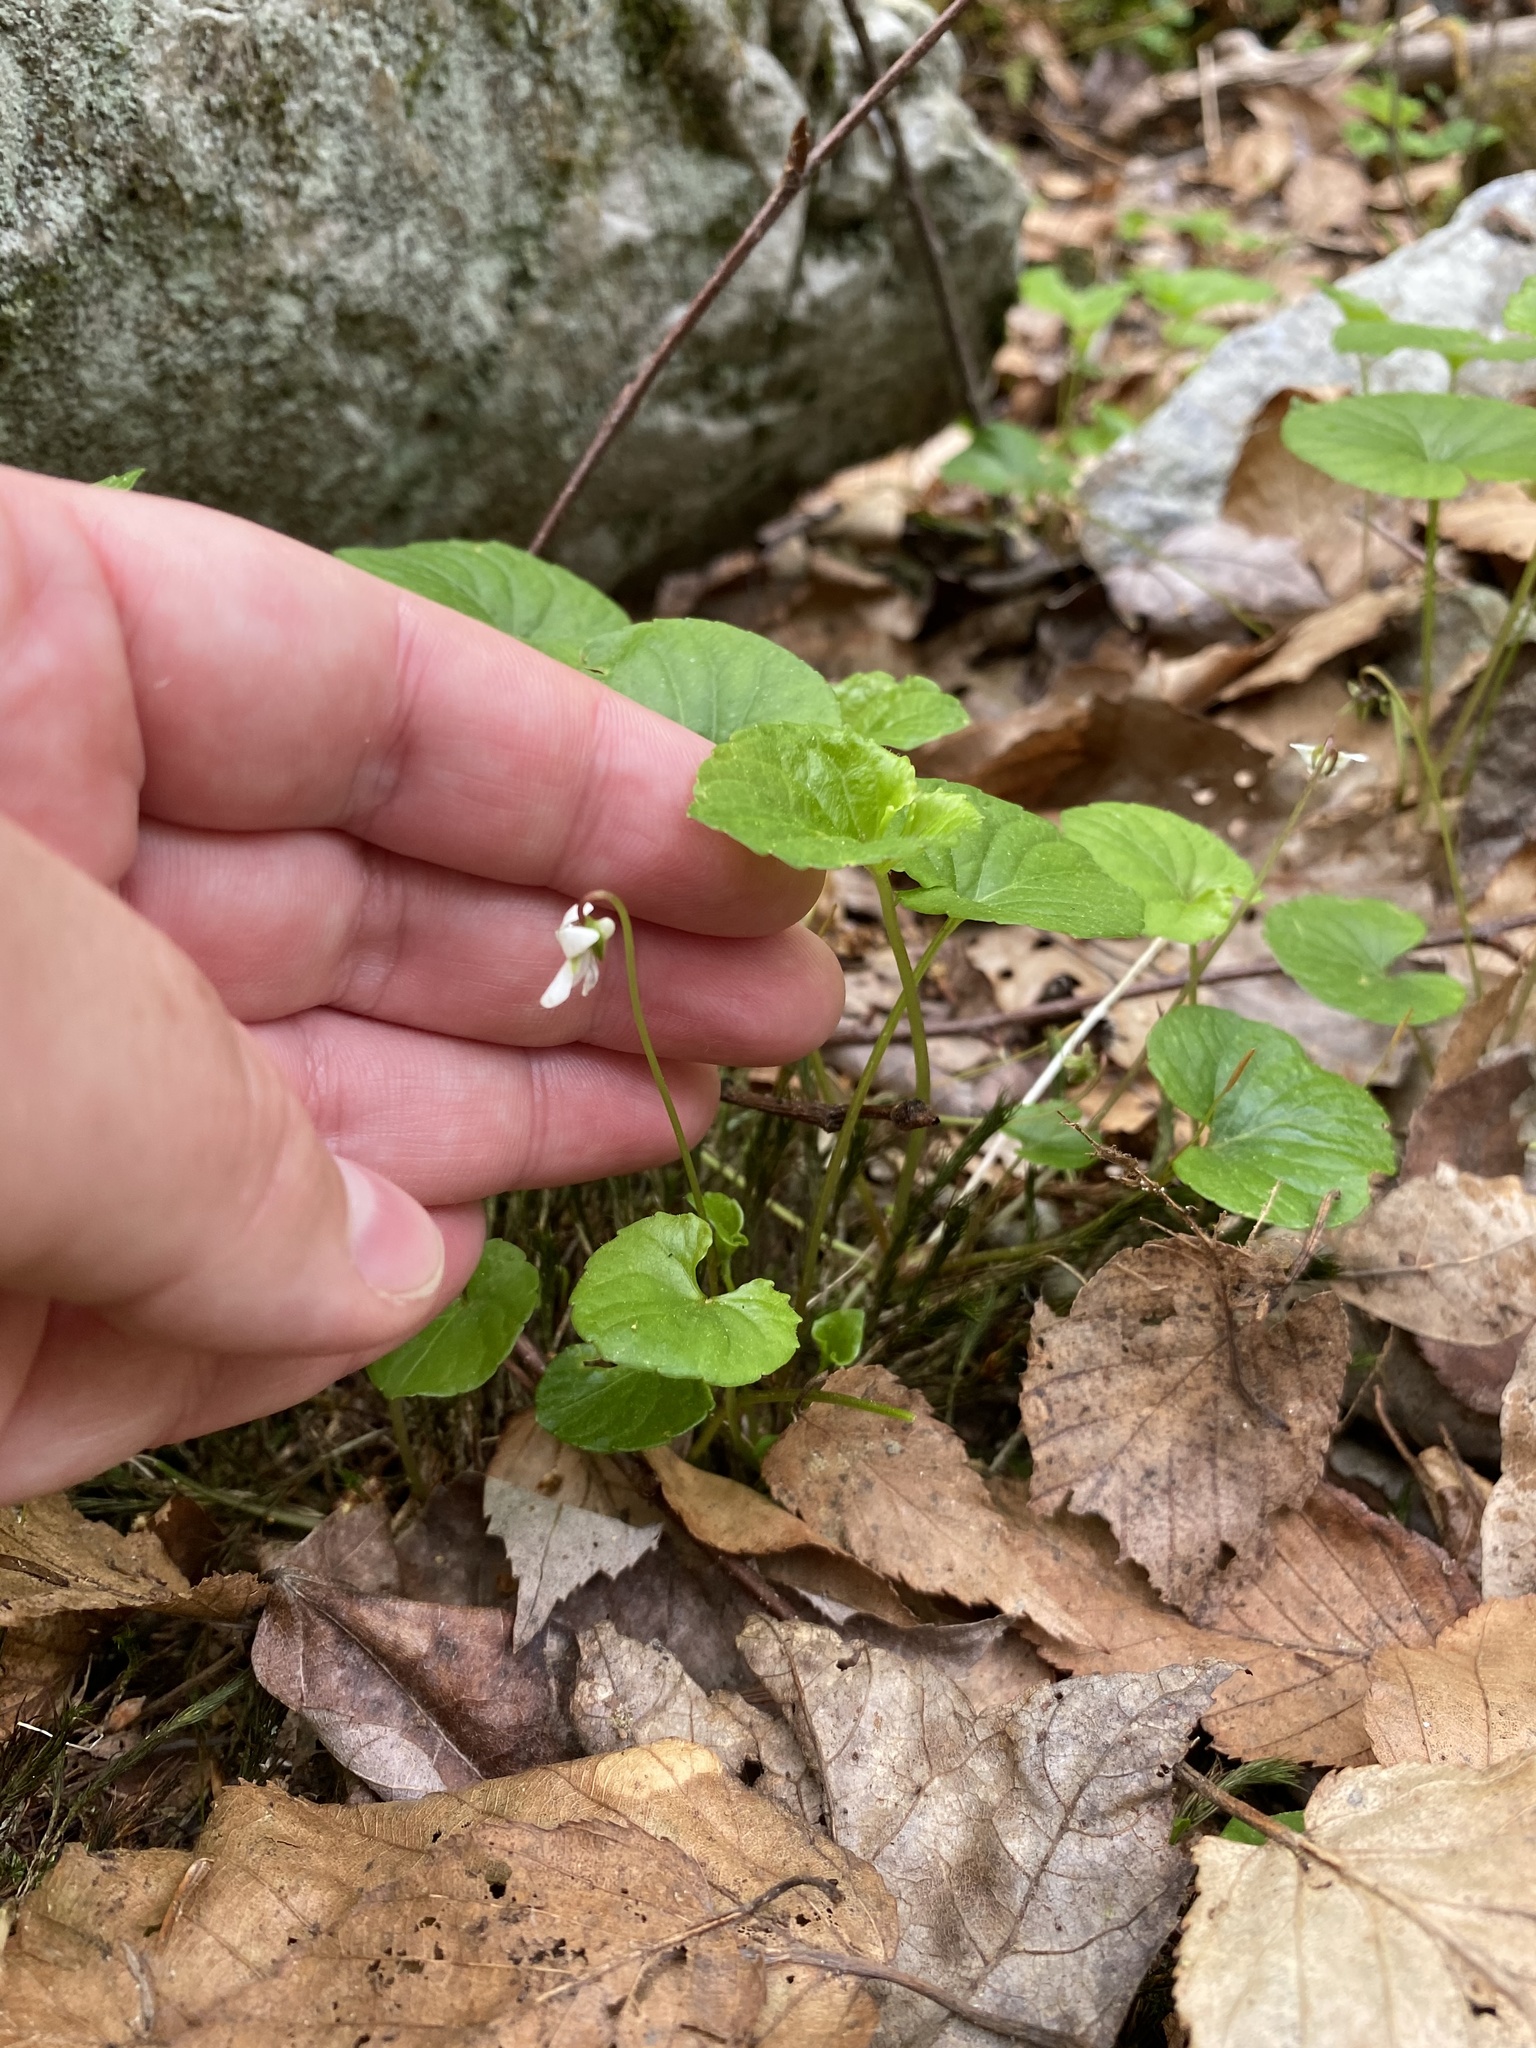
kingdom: Plantae
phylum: Tracheophyta
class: Magnoliopsida
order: Malpighiales
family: Violaceae
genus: Viola
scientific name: Viola incognita
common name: Largeleaf white violet
